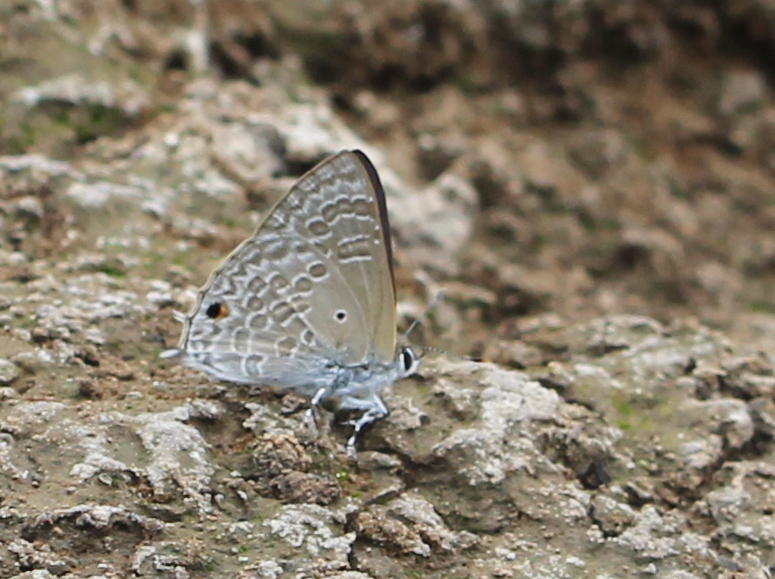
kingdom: Animalia
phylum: Arthropoda
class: Insecta
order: Lepidoptera
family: Lycaenidae
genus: Anthene
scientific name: Anthene lycaenina
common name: Pointed ciliate blue
